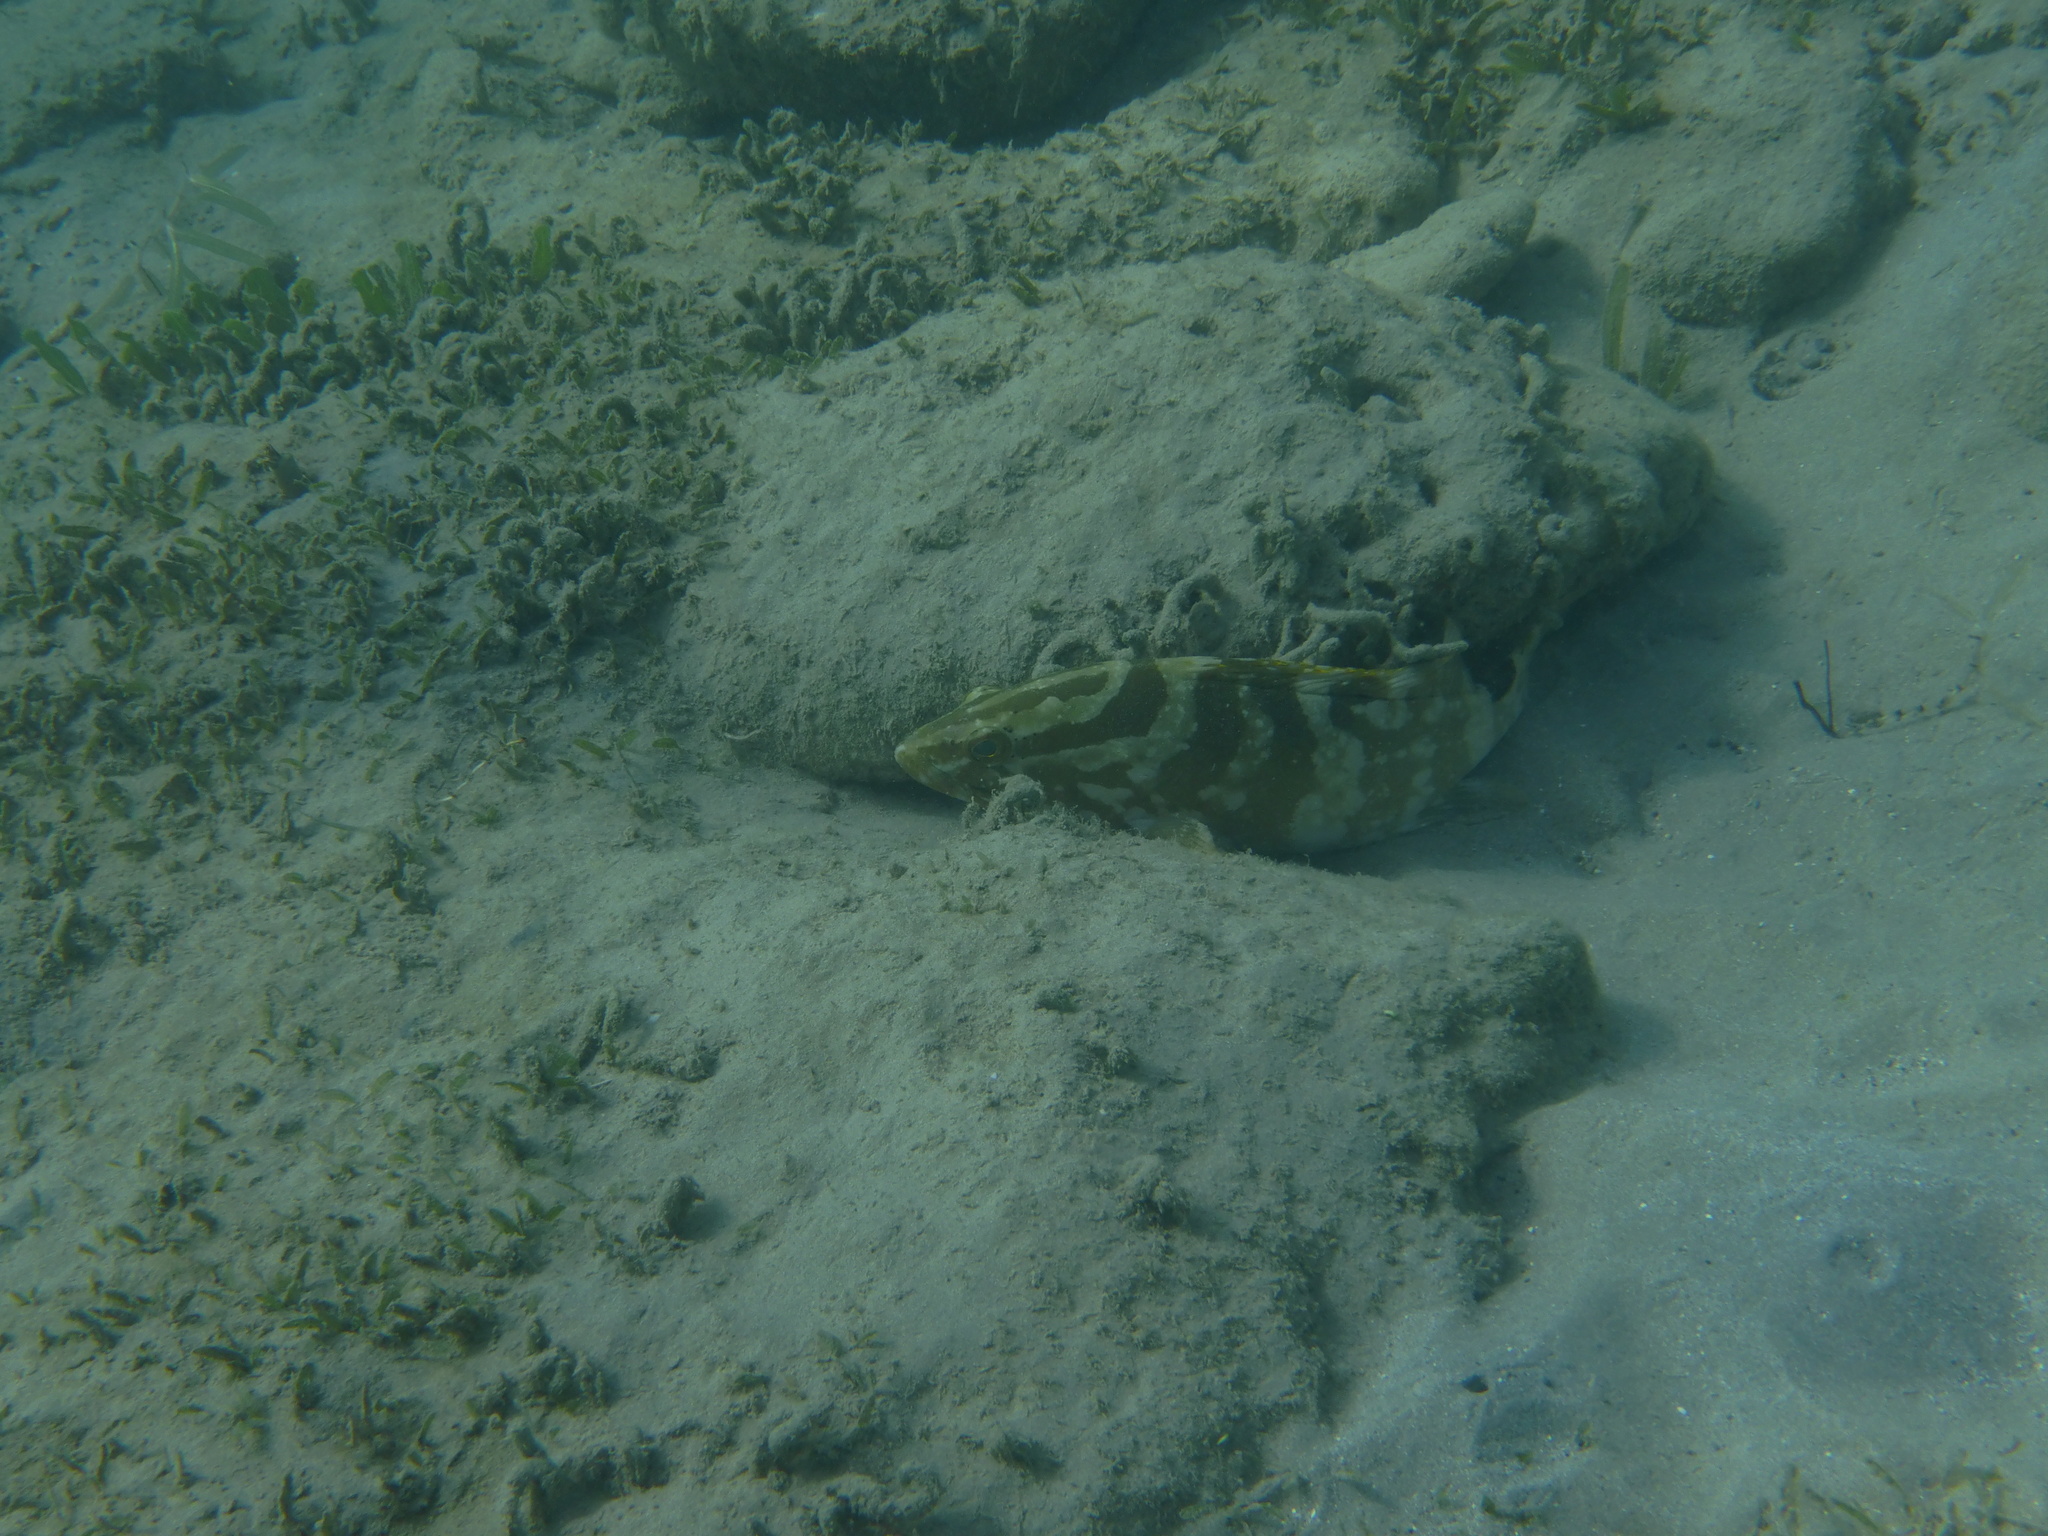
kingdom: Animalia
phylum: Chordata
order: Perciformes
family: Serranidae
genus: Epinephelus
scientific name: Epinephelus striatus
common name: Nassau grouper
